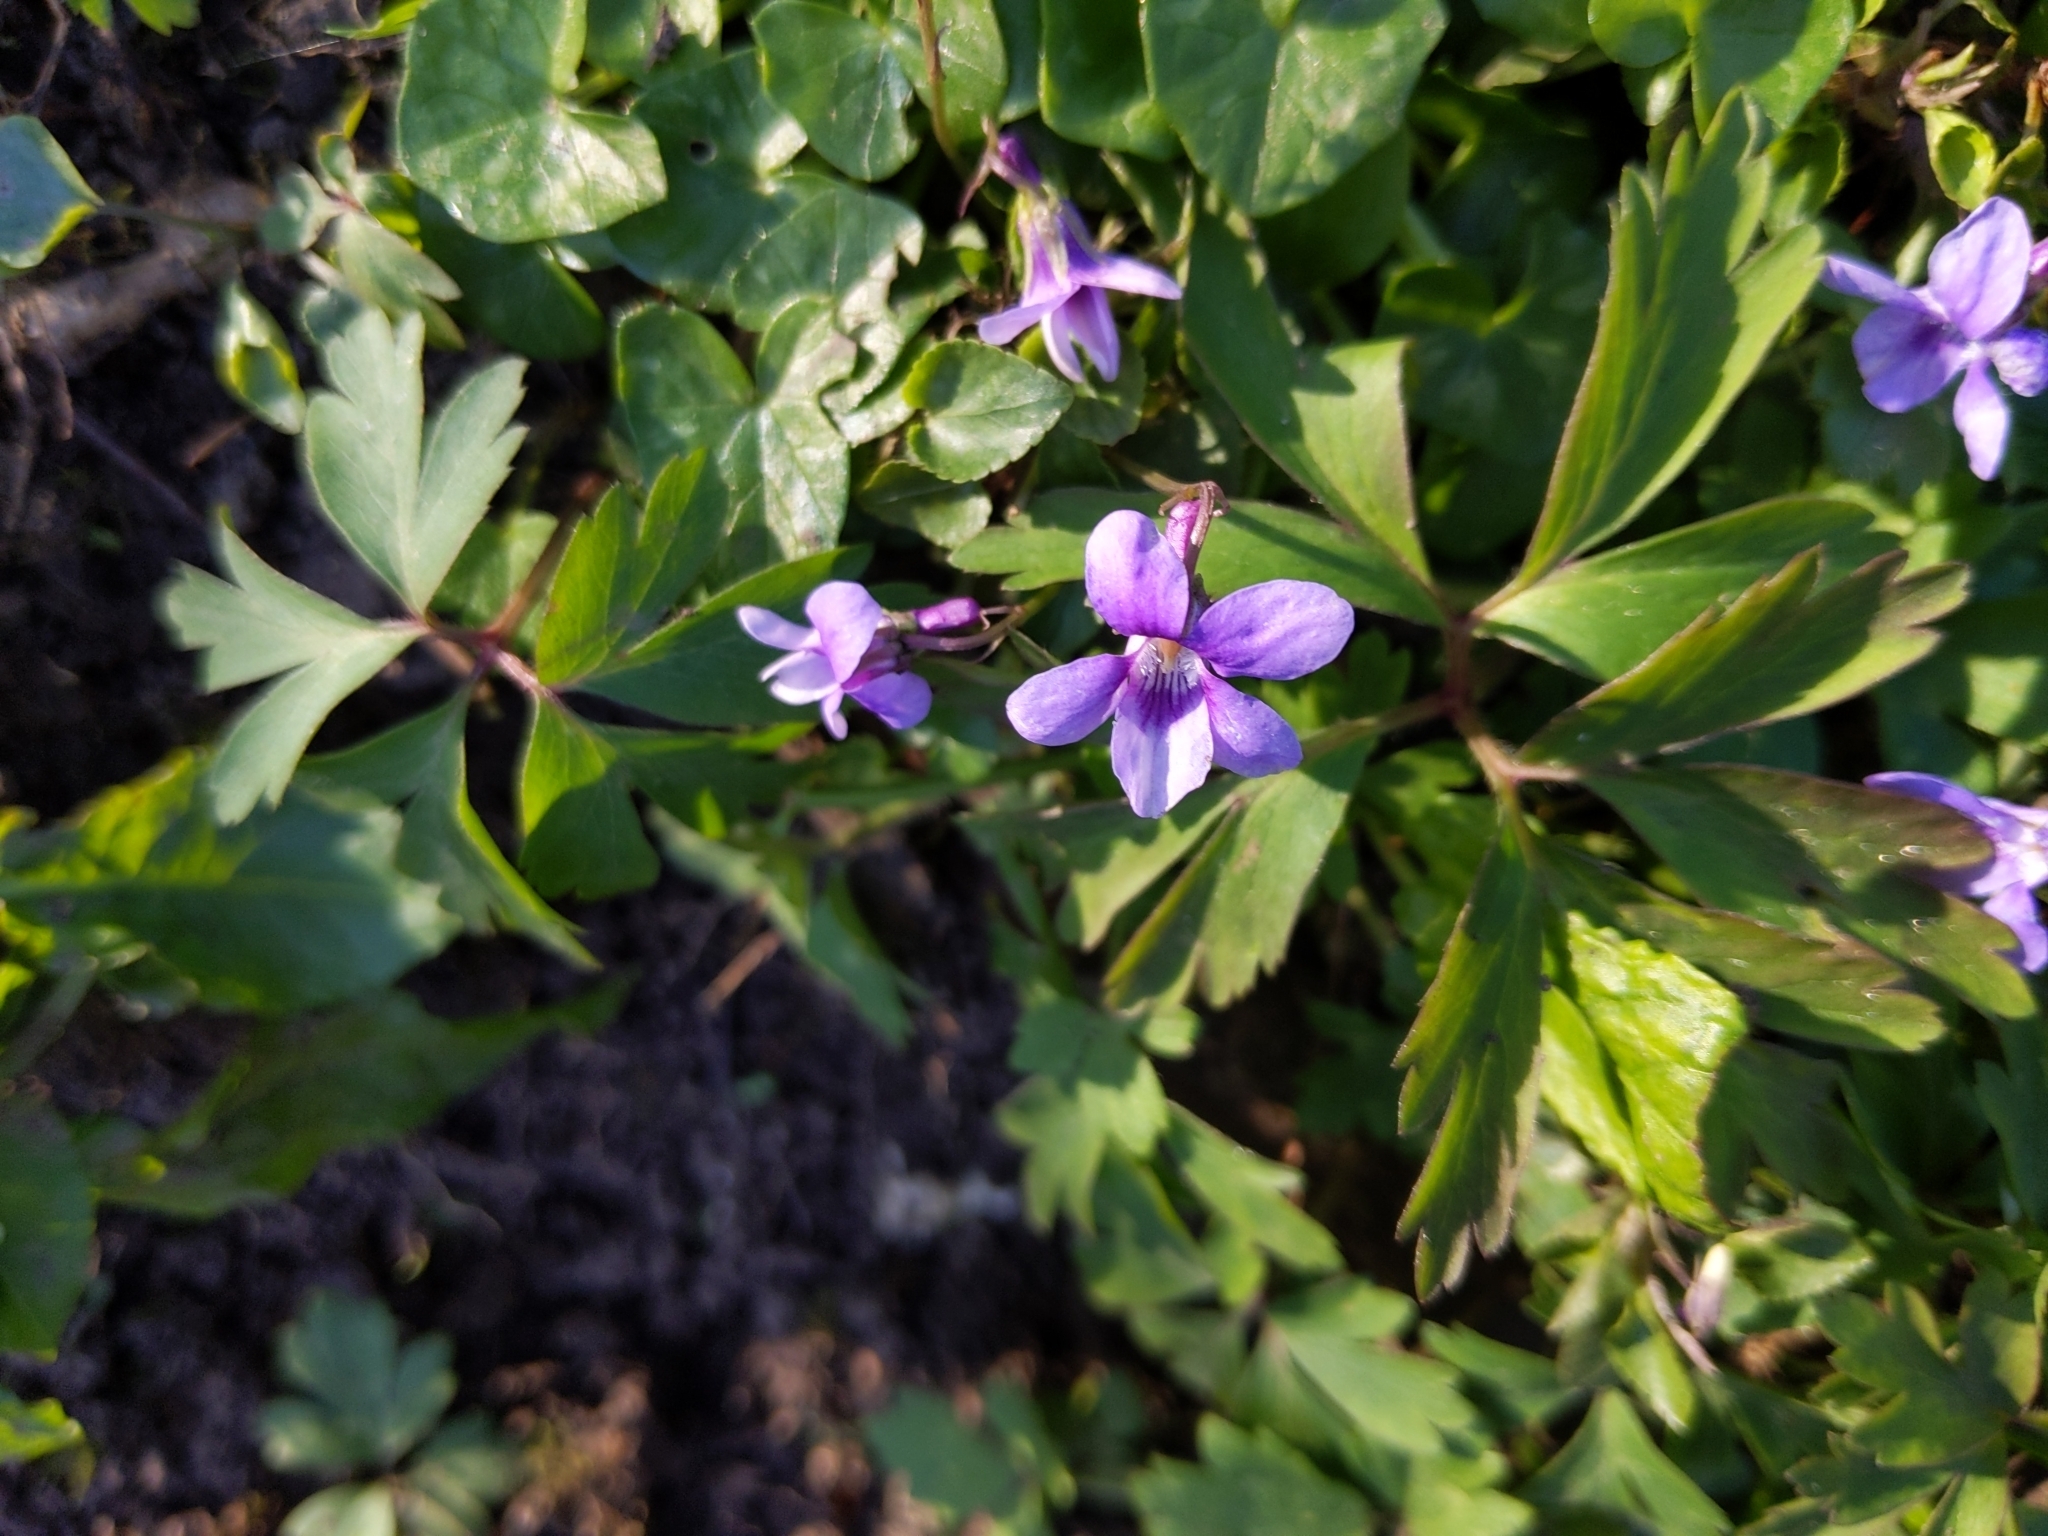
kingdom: Plantae
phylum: Tracheophyta
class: Magnoliopsida
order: Malpighiales
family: Violaceae
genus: Viola
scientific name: Viola reichenbachiana
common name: Early dog-violet
